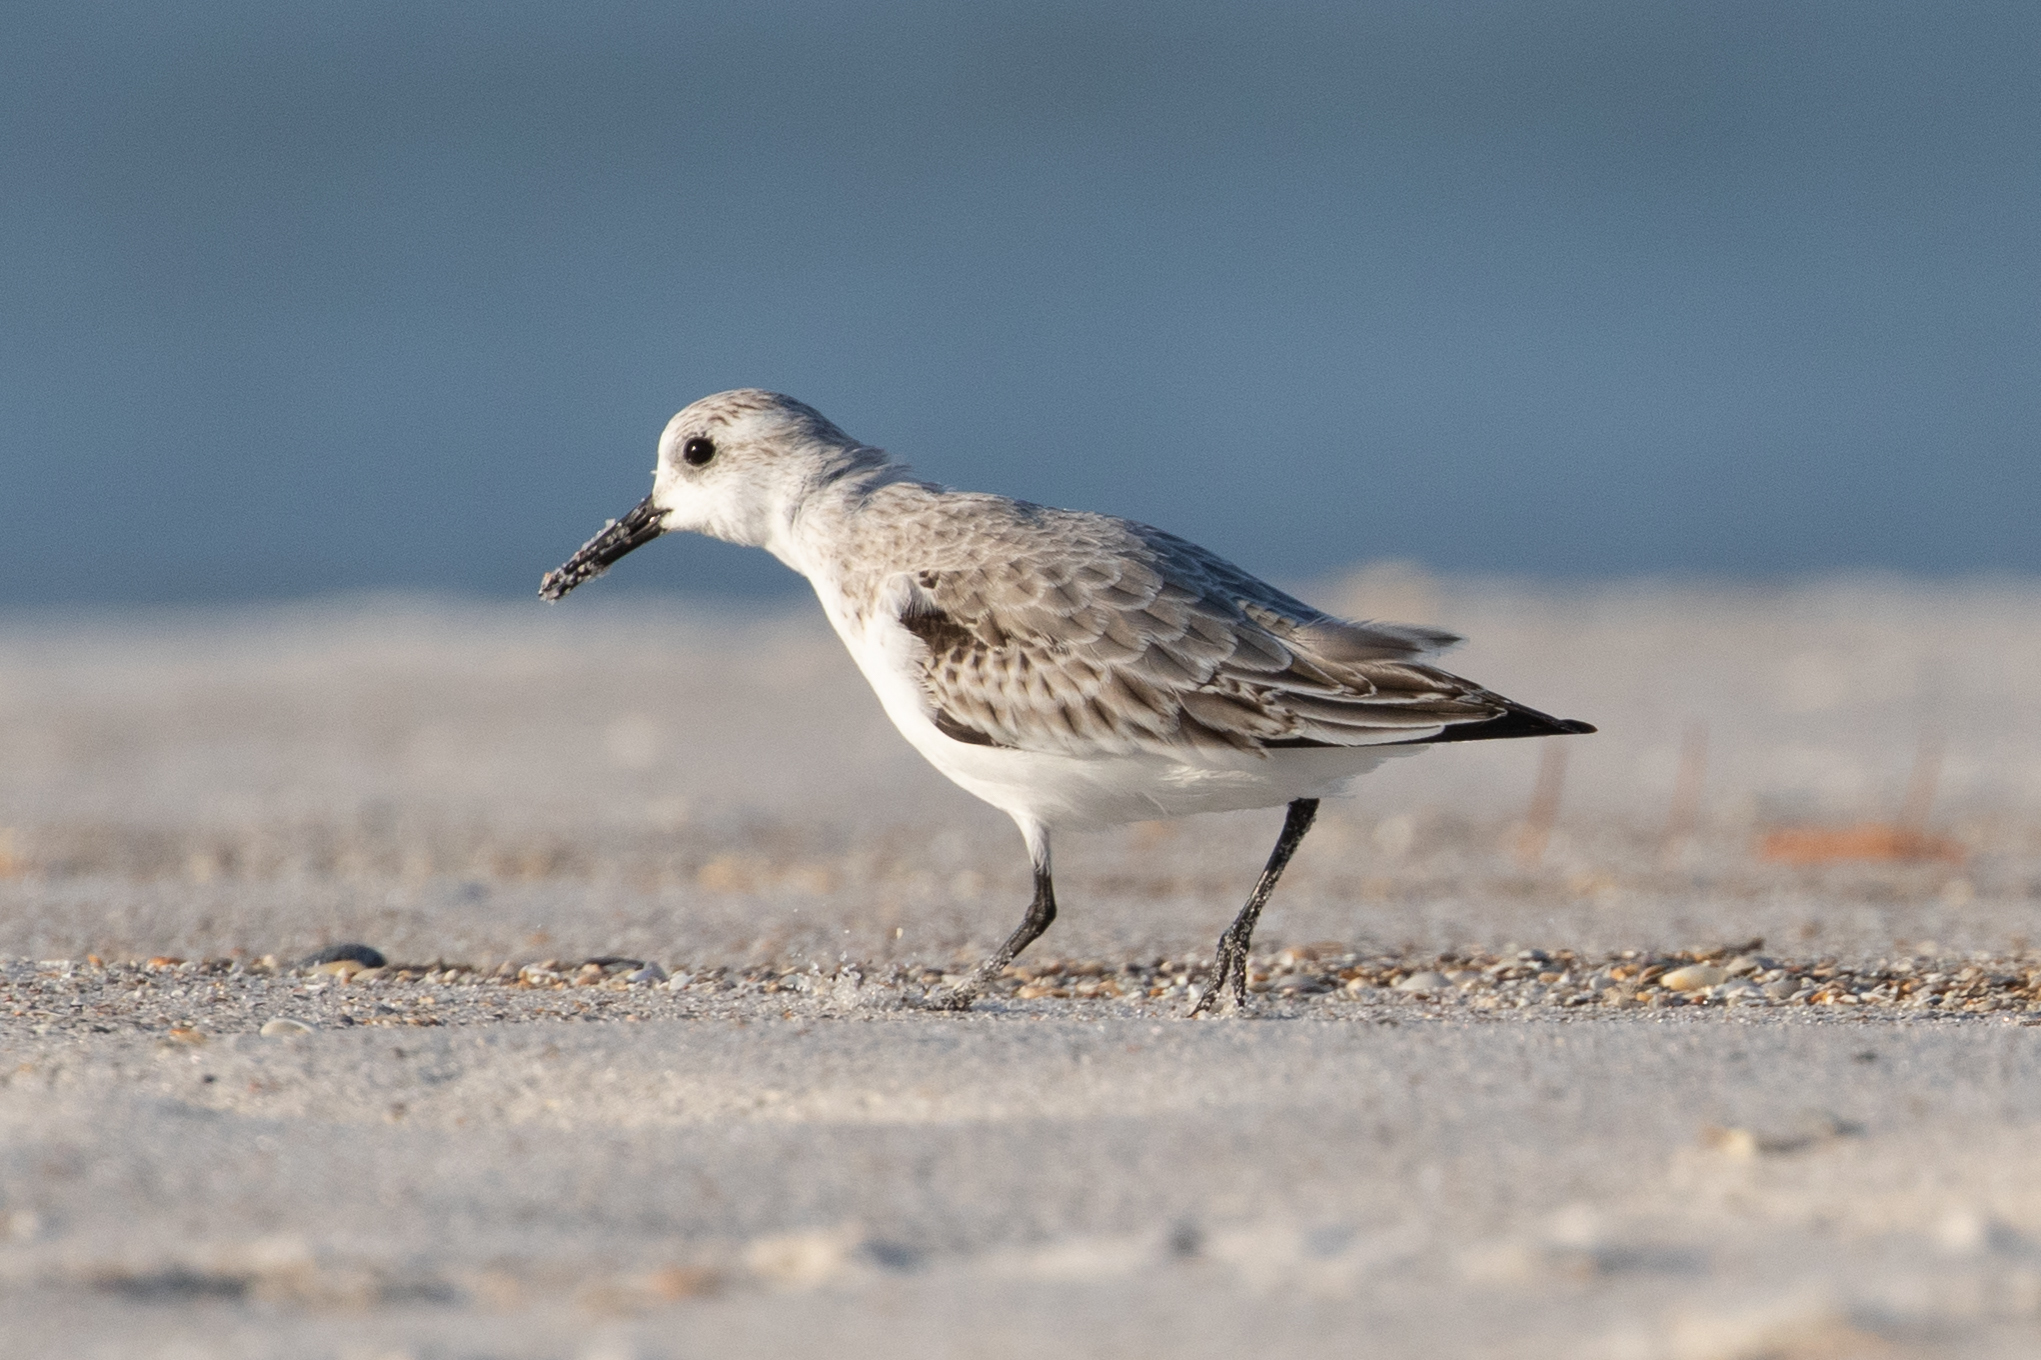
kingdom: Animalia
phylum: Chordata
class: Aves
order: Charadriiformes
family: Scolopacidae
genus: Calidris
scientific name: Calidris alba
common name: Sanderling
